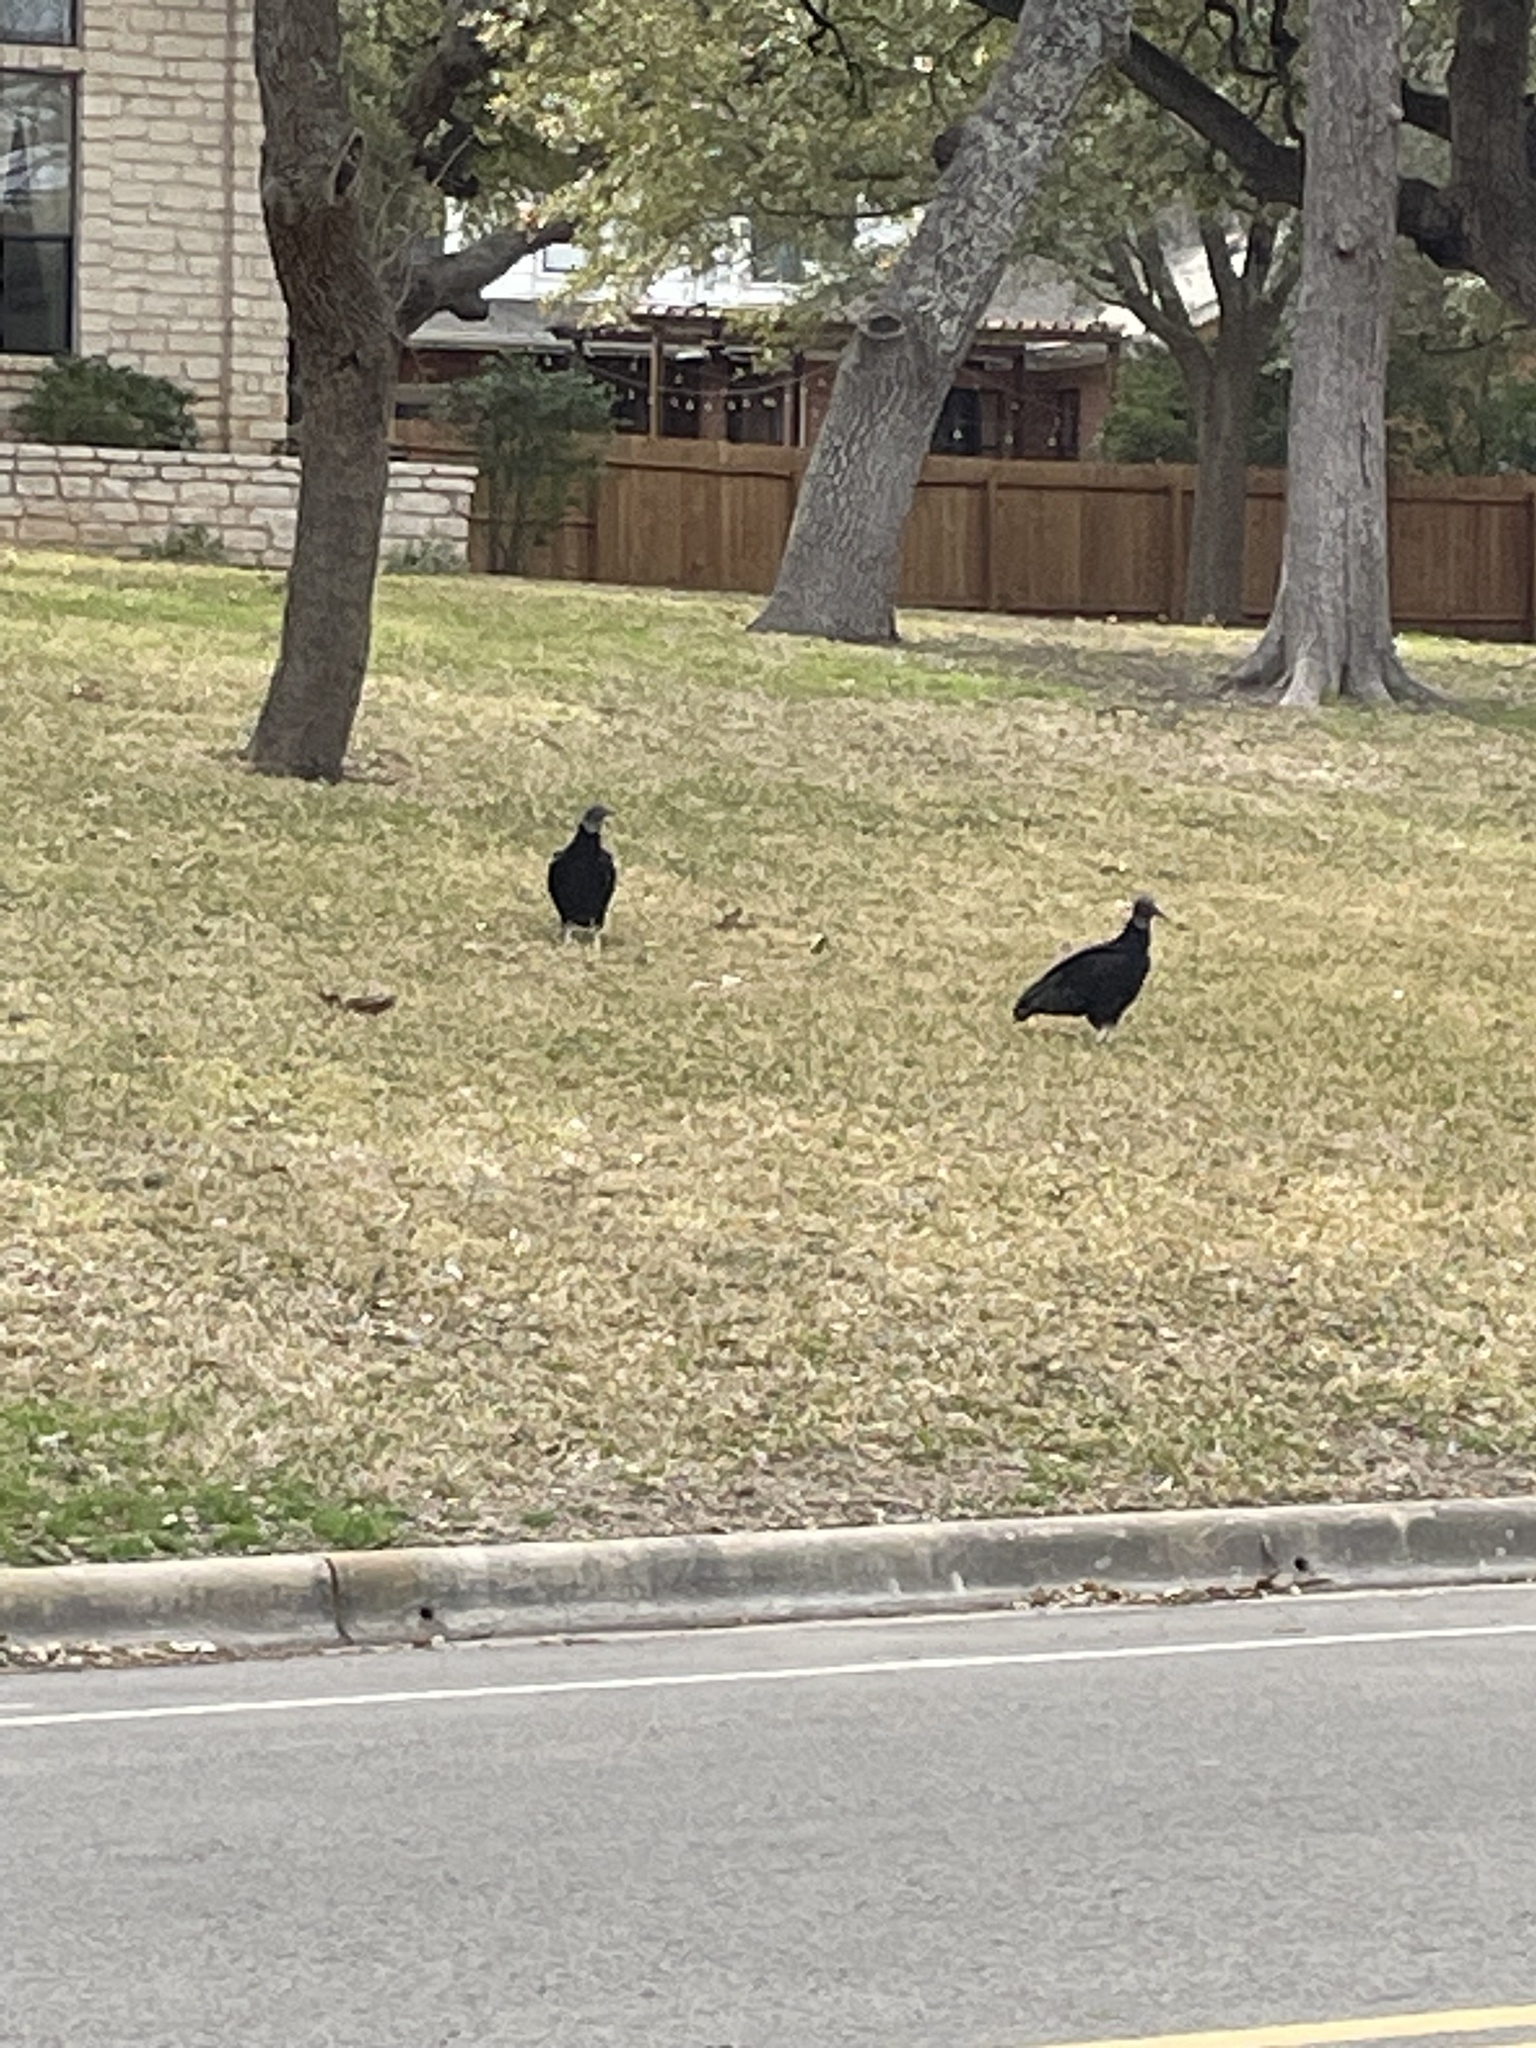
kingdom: Animalia
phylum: Chordata
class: Aves
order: Accipitriformes
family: Cathartidae
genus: Coragyps
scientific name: Coragyps atratus
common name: Black vulture
